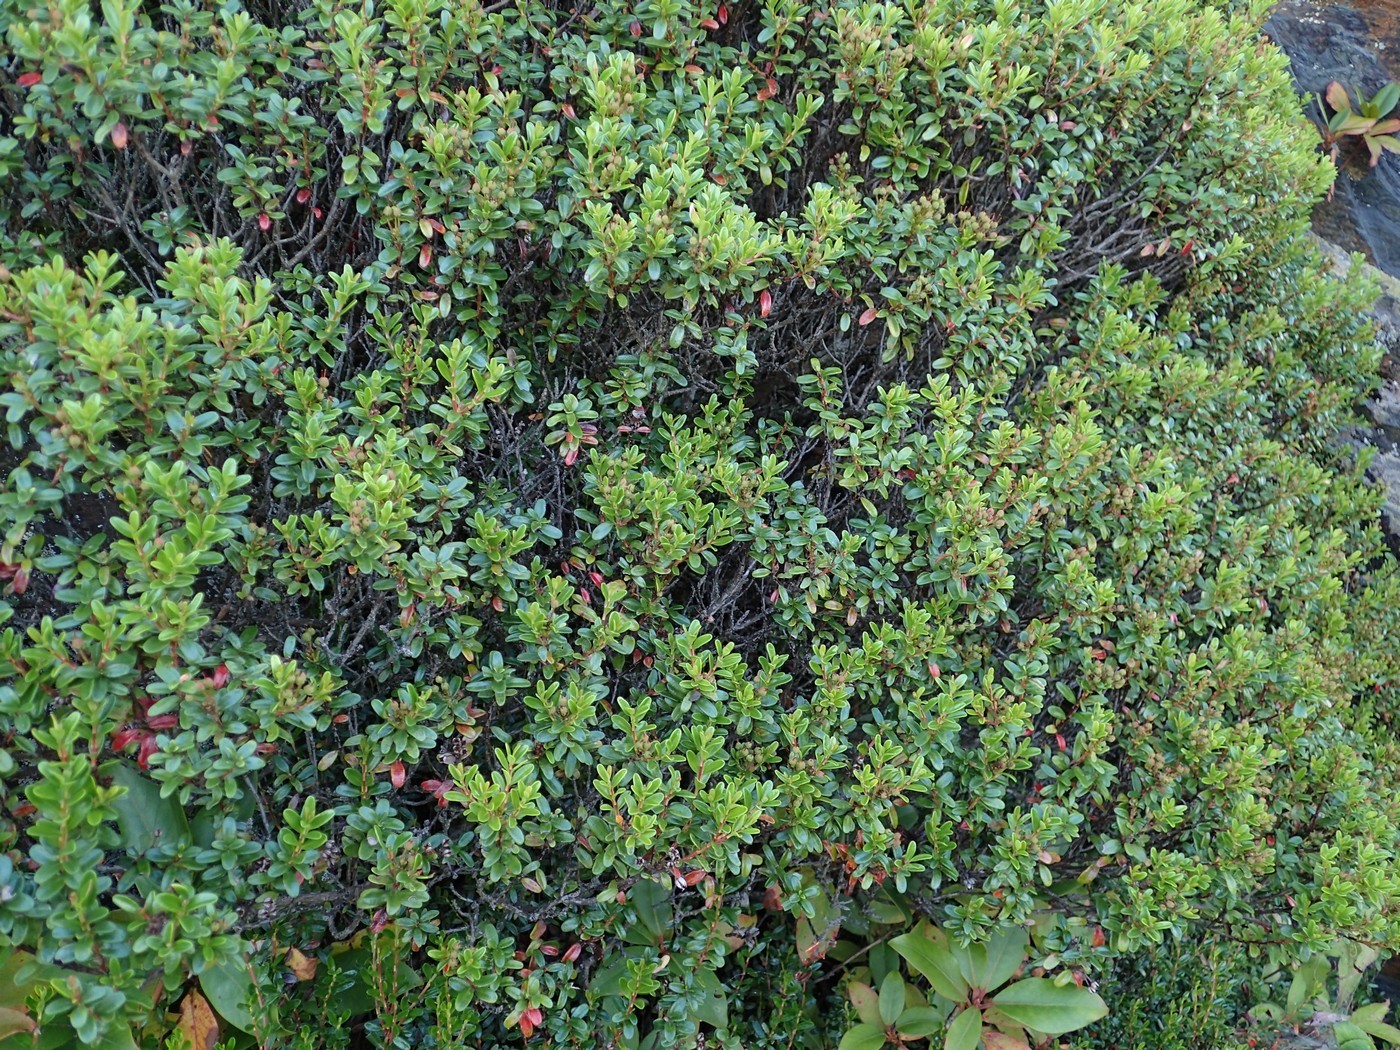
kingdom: Plantae
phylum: Tracheophyta
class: Magnoliopsida
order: Ericales
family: Ericaceae
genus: Kalmia
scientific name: Kalmia buxifolia
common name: Sandmyrtle
